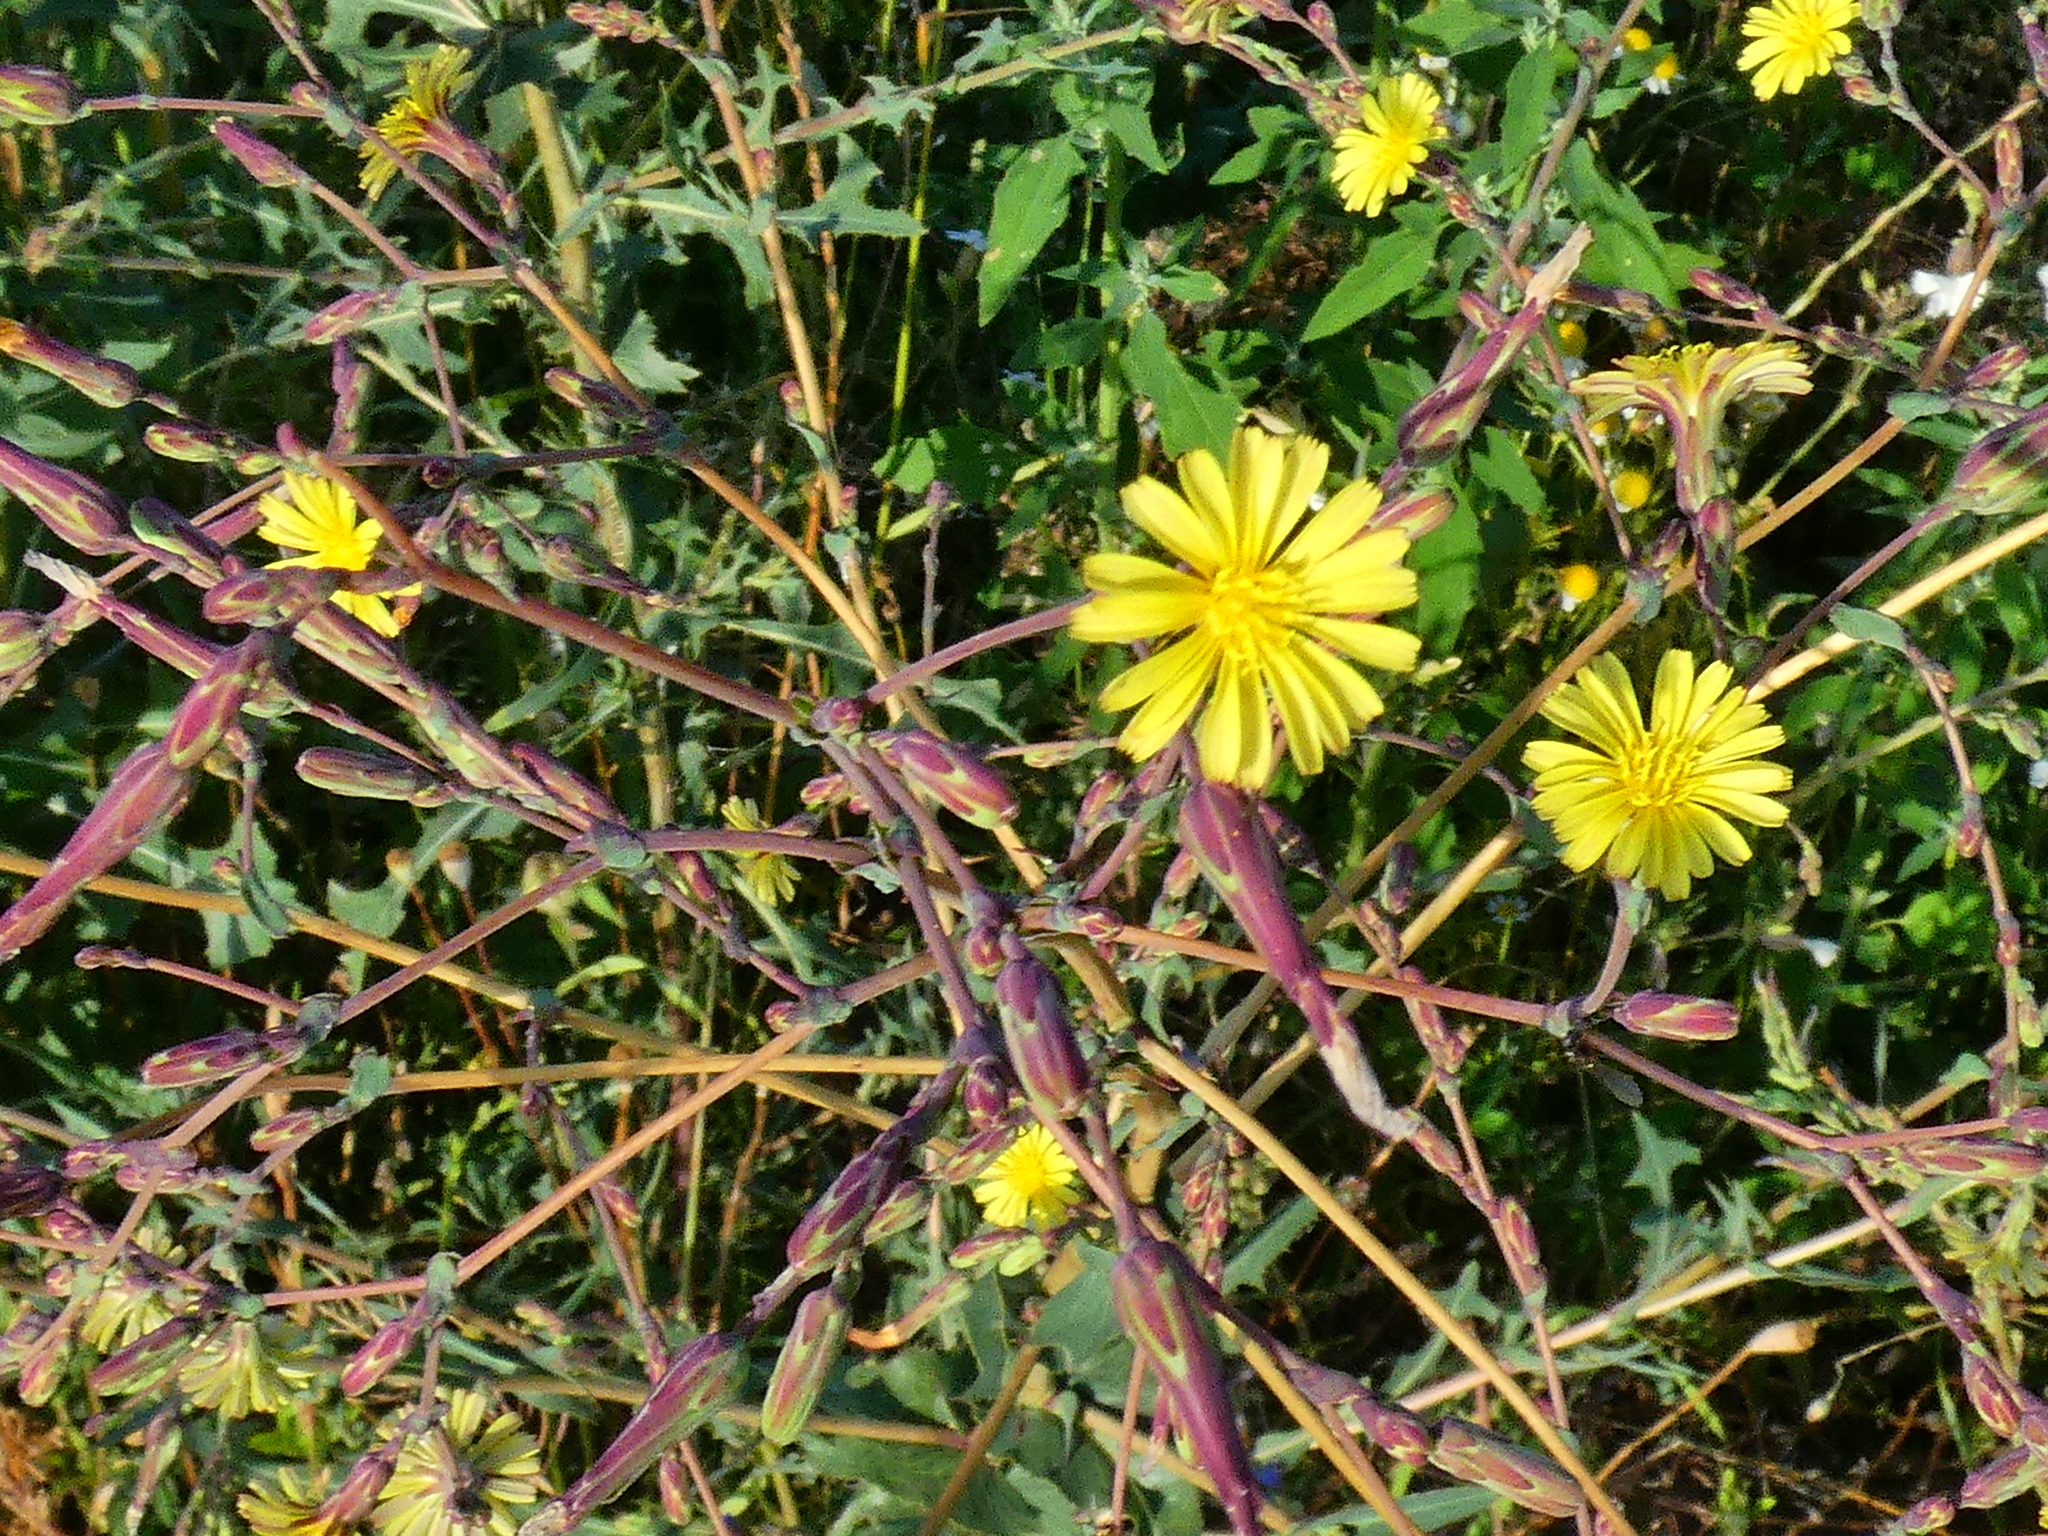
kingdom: Plantae
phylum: Tracheophyta
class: Magnoliopsida
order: Asterales
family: Asteraceae
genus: Lactuca
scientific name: Lactuca serriola
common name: Prickly lettuce
